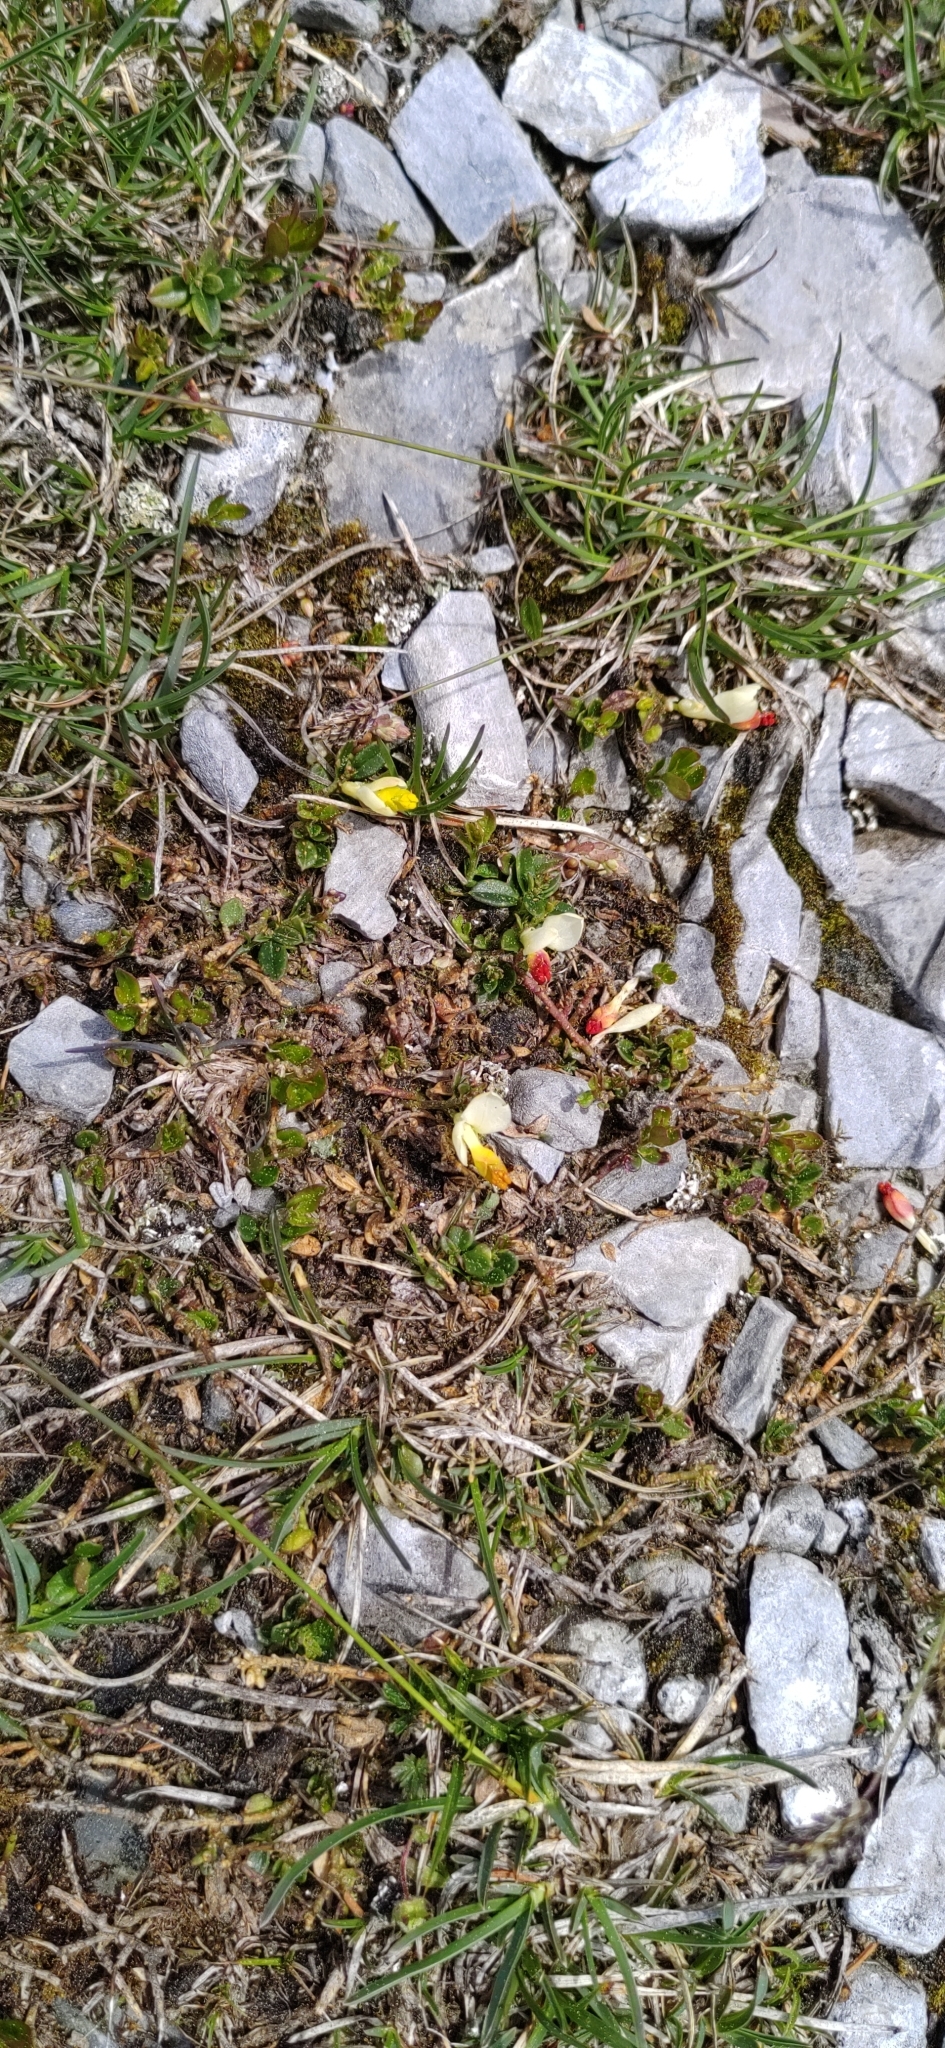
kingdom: Plantae
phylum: Tracheophyta
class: Magnoliopsida
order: Fabales
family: Polygalaceae
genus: Polygaloides
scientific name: Polygaloides chamaebuxus
